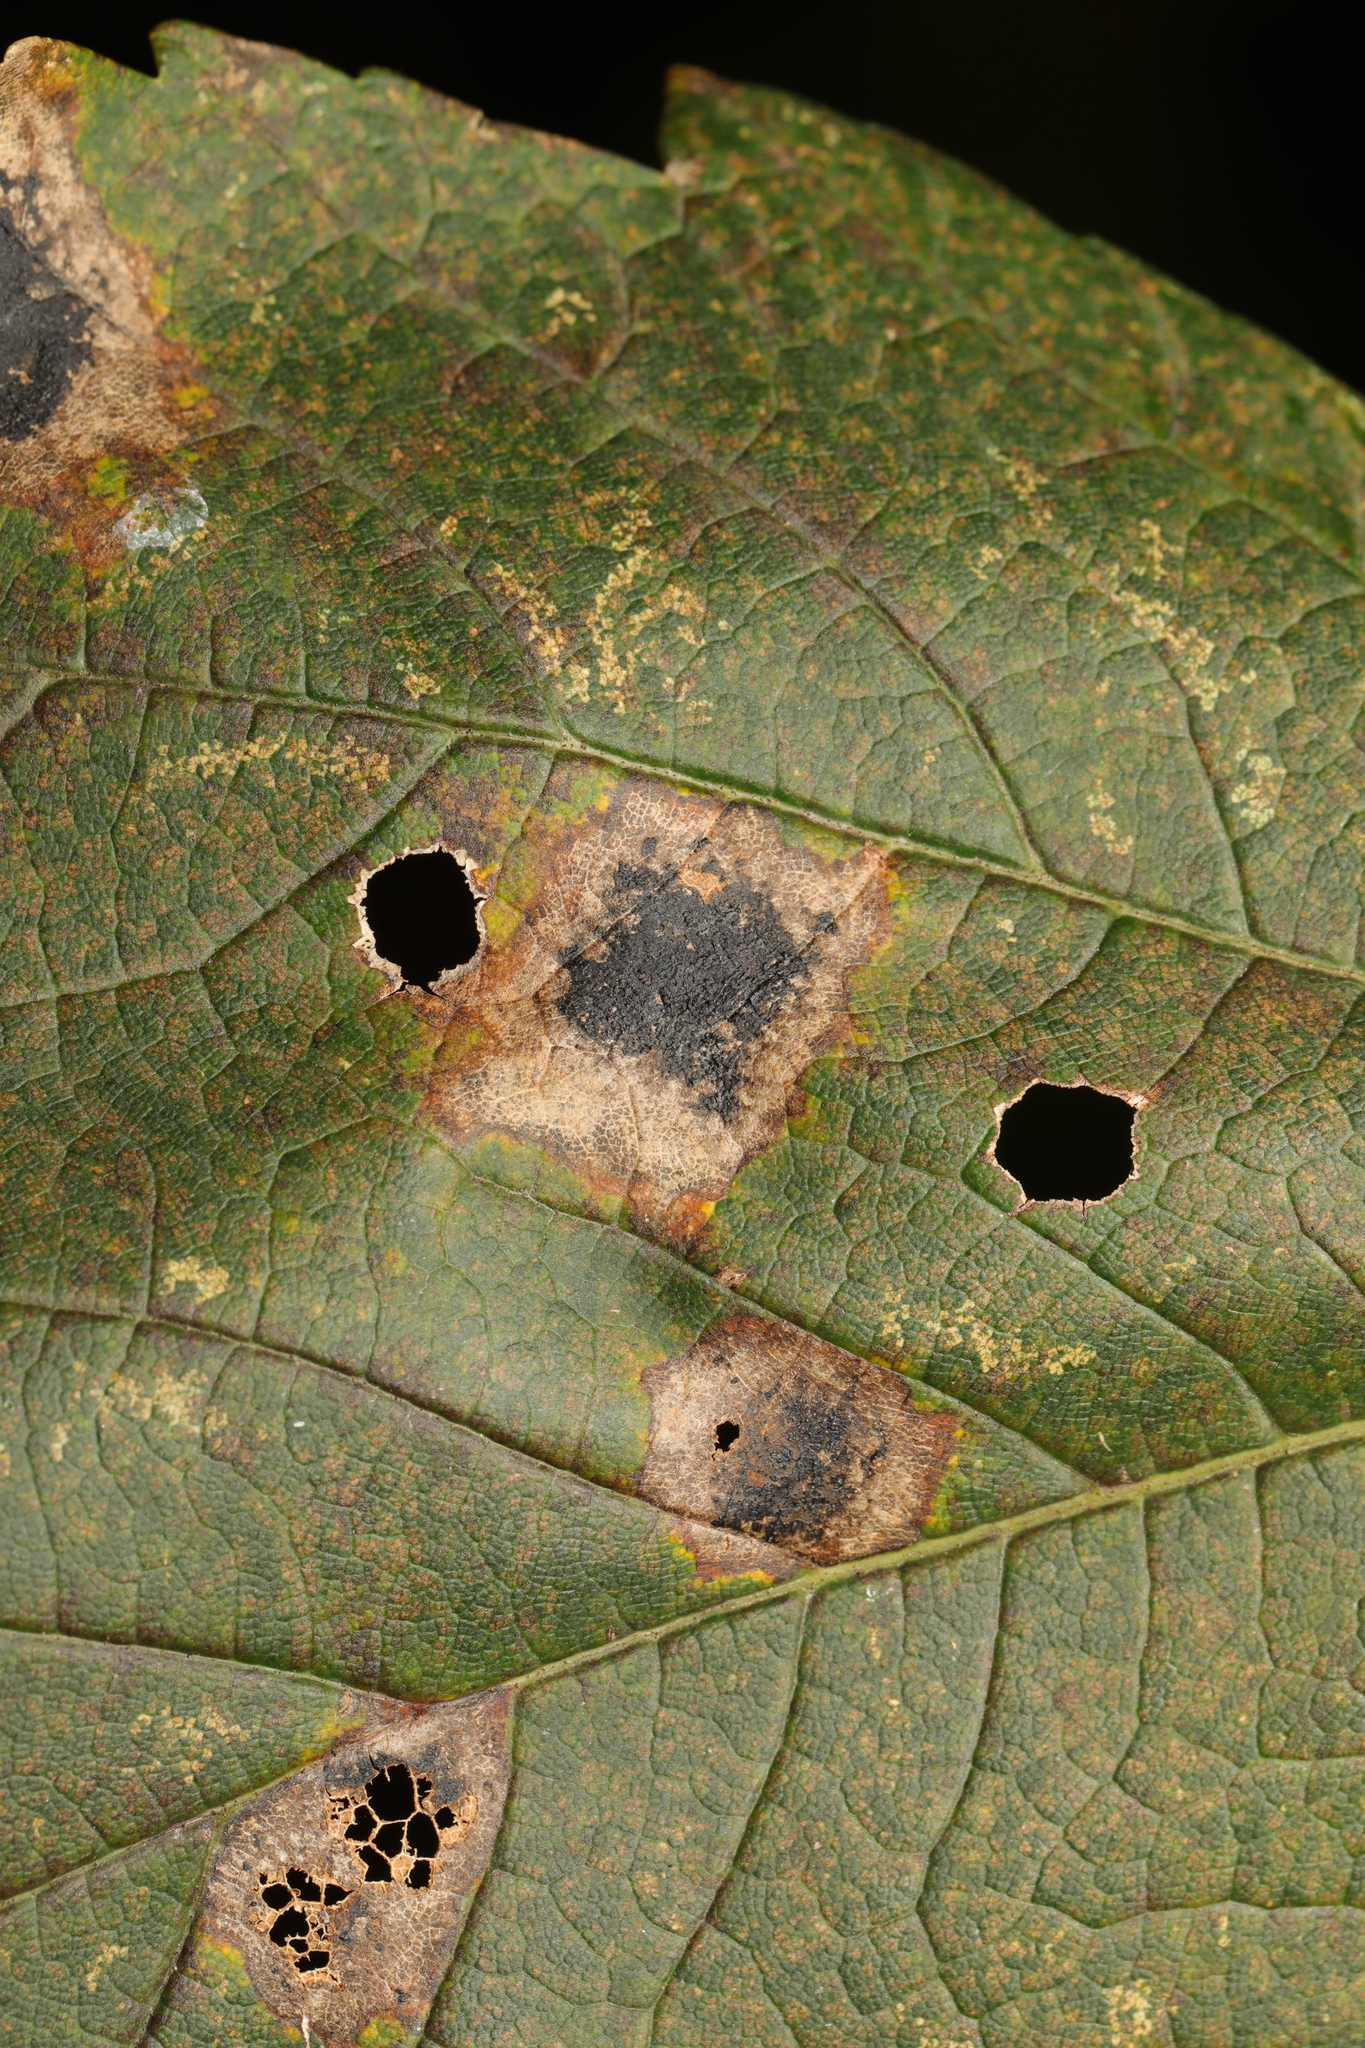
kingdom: Fungi
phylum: Ascomycota
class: Leotiomycetes
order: Rhytismatales
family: Rhytismataceae
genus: Rhytisma
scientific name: Rhytisma acerinum
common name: European tar spot
